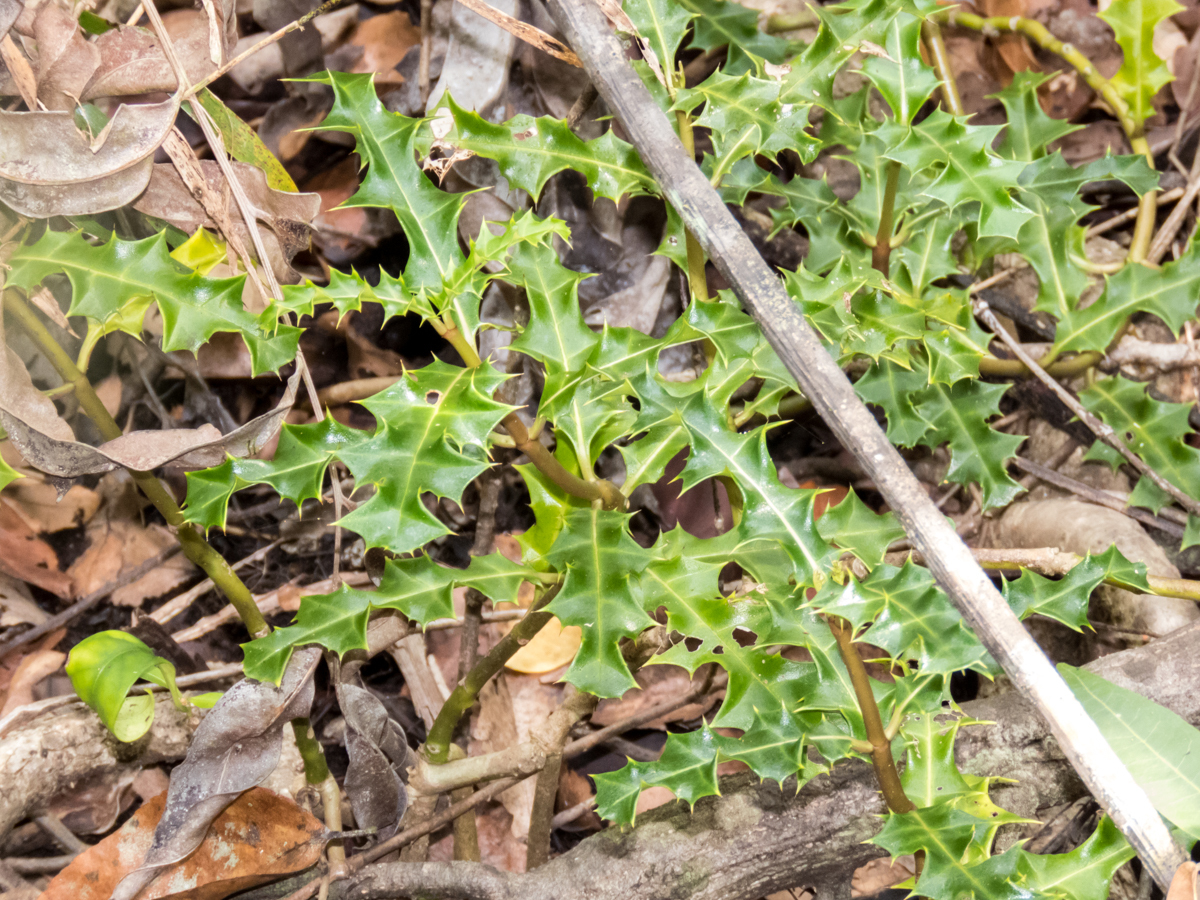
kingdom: Plantae
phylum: Tracheophyta
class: Magnoliopsida
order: Lamiales
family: Acanthaceae
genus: Acanthus
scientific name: Acanthus ebracteatus
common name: Acanthus
